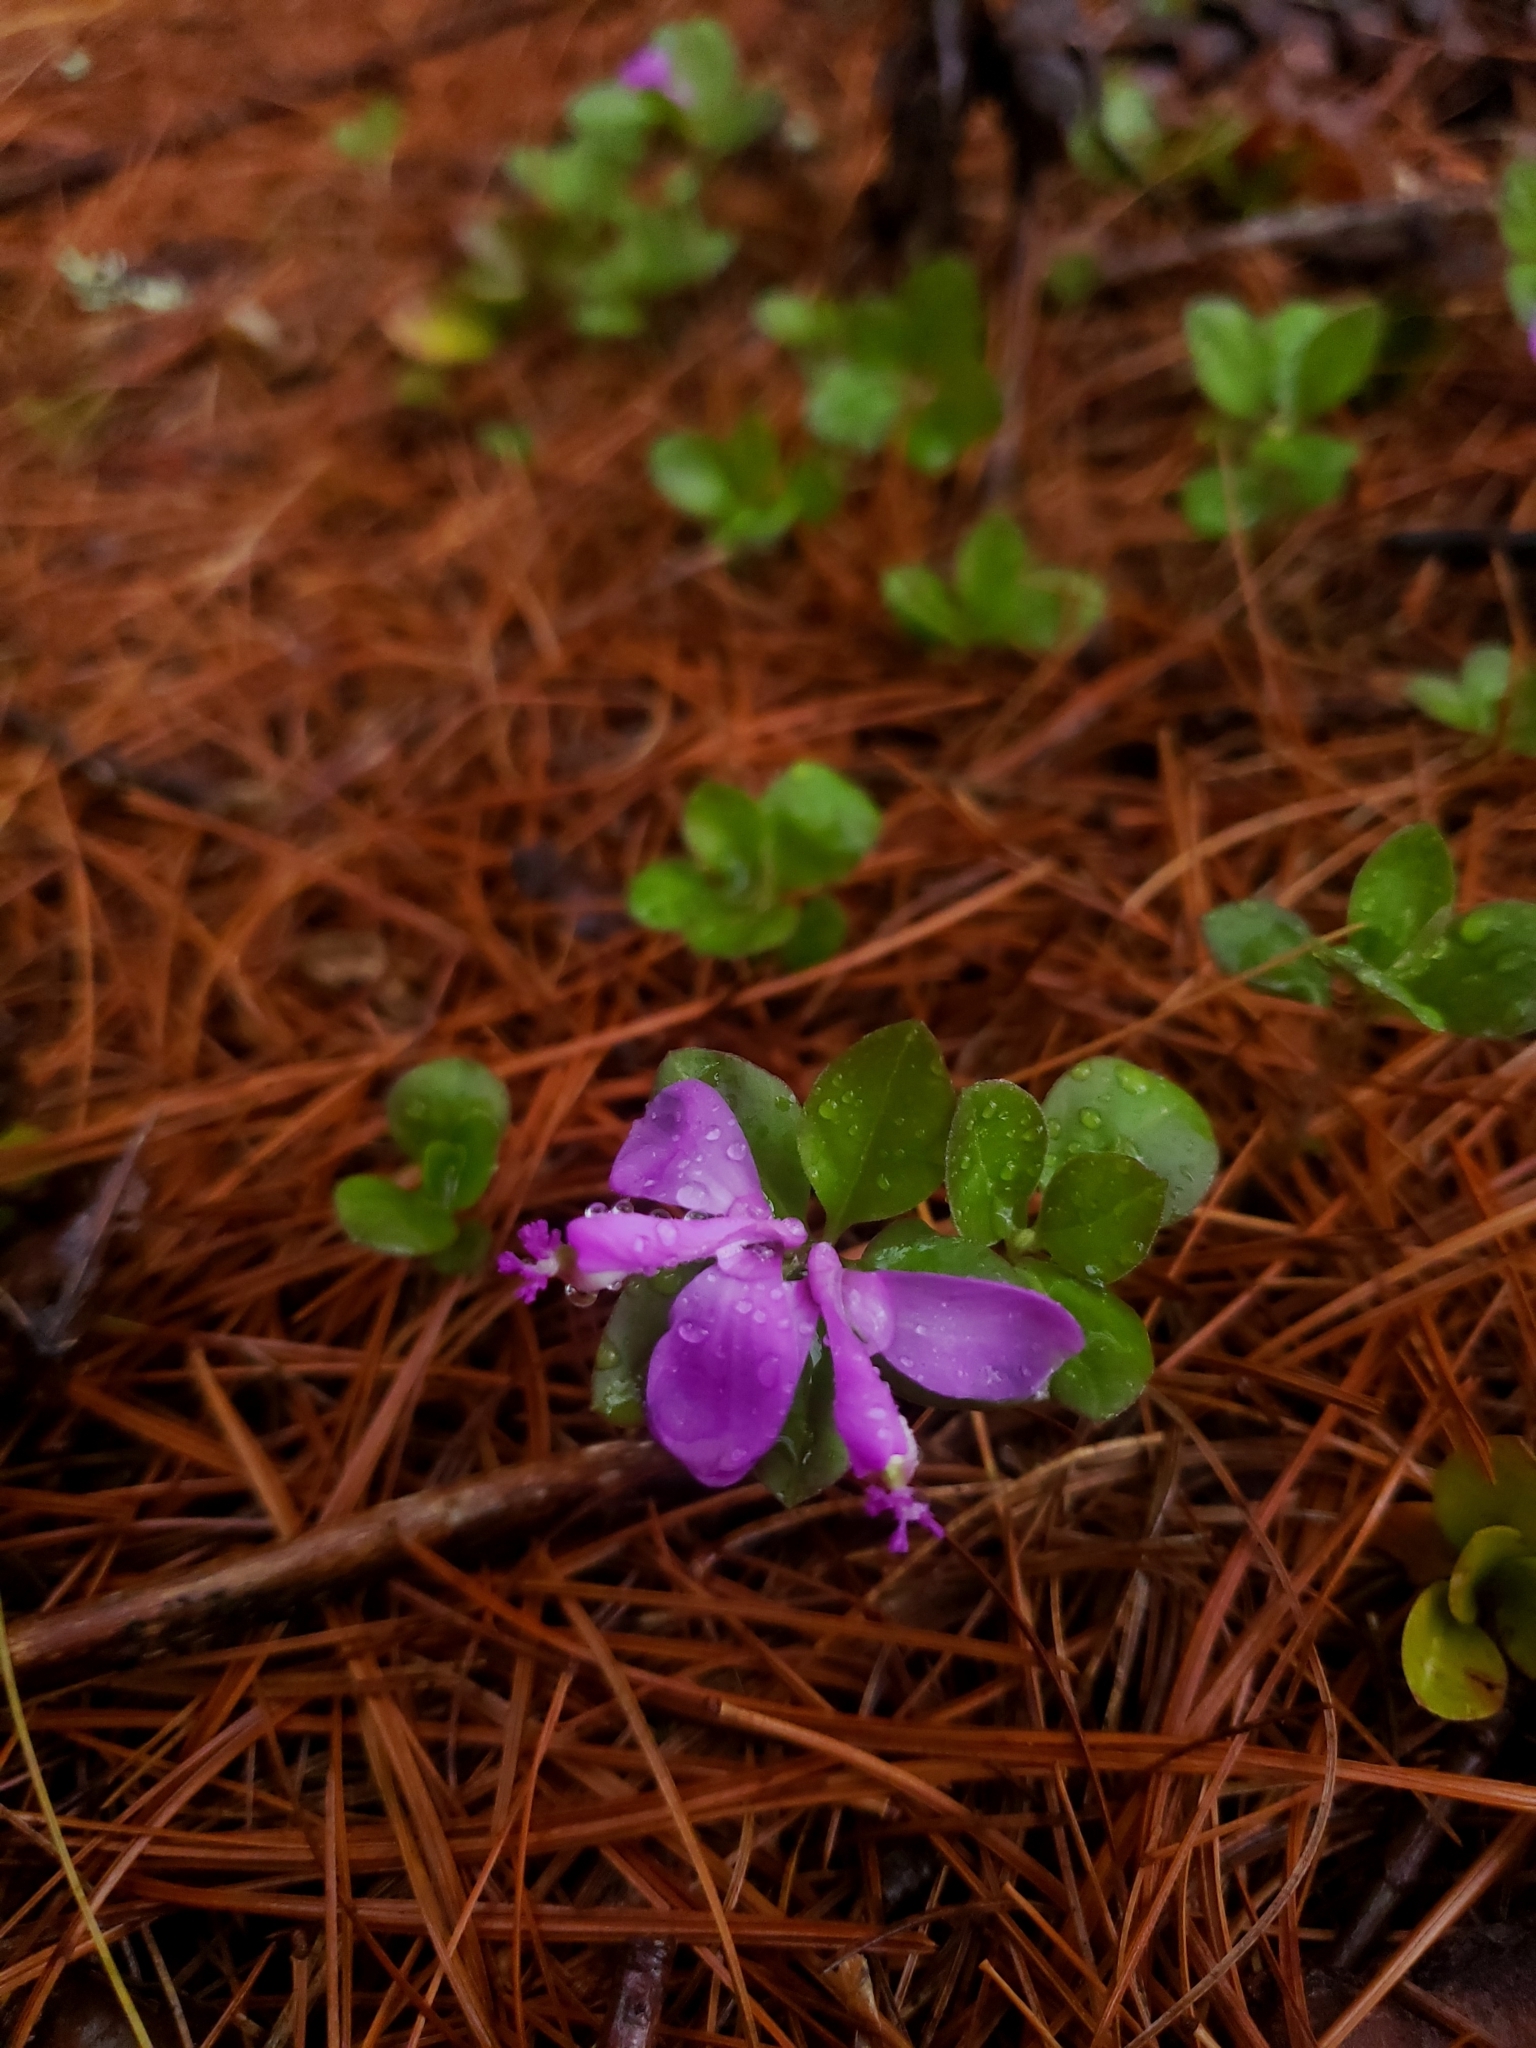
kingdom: Plantae
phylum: Tracheophyta
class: Magnoliopsida
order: Fabales
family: Polygalaceae
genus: Polygaloides
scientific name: Polygaloides paucifolia
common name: Bird-on-the-wing
